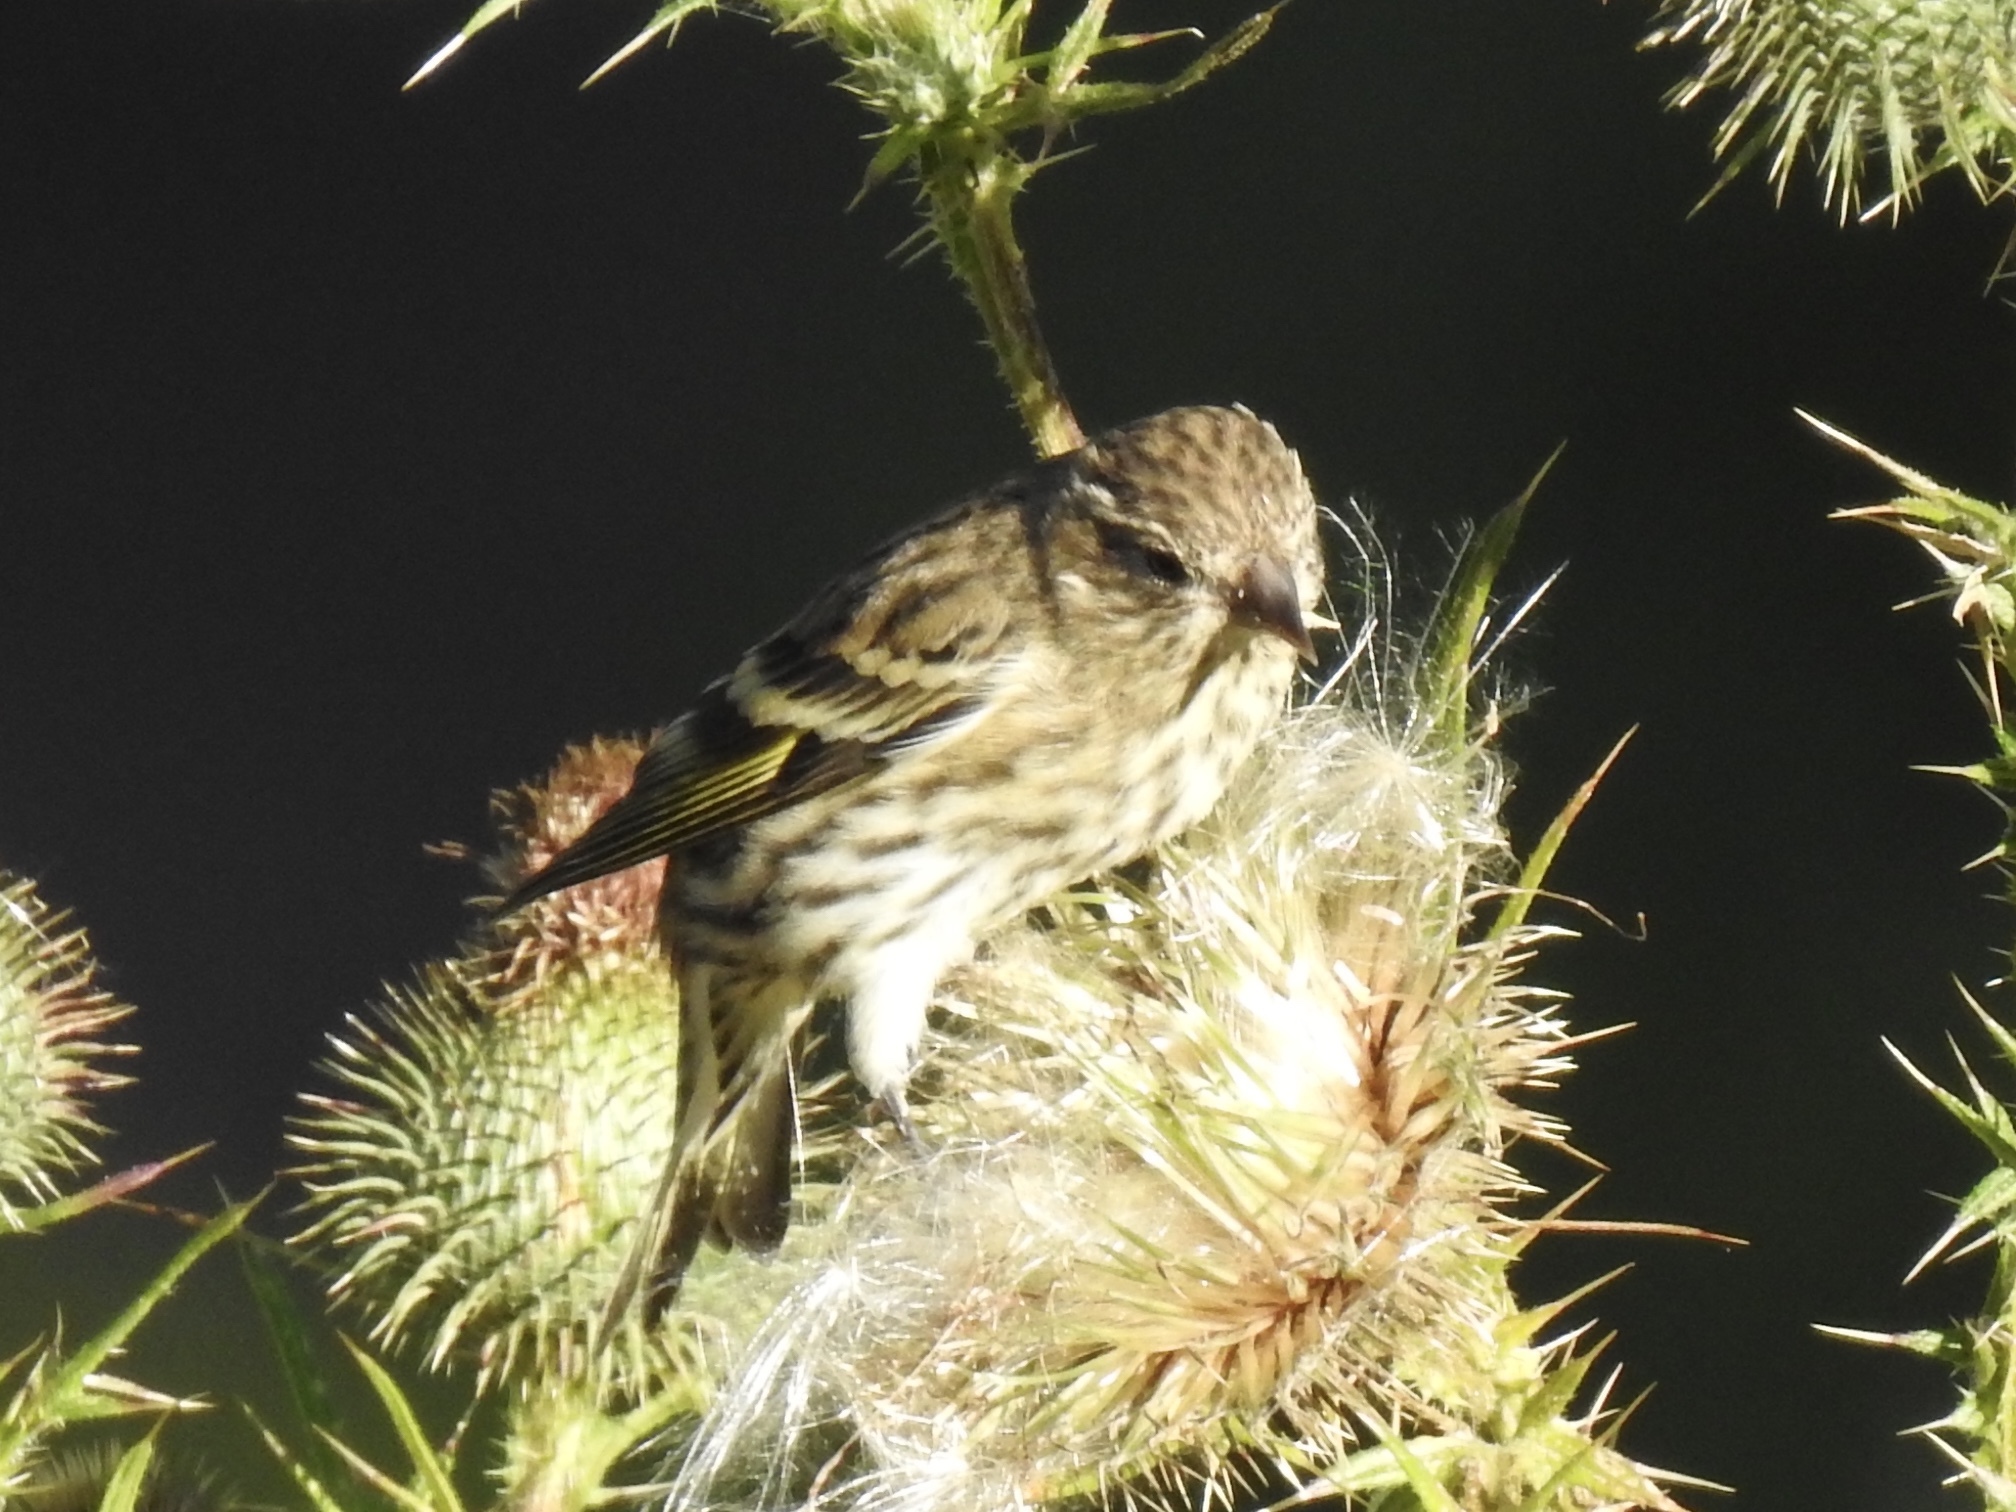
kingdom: Animalia
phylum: Chordata
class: Aves
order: Passeriformes
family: Fringillidae
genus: Spinus
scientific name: Spinus pinus
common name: Pine siskin
